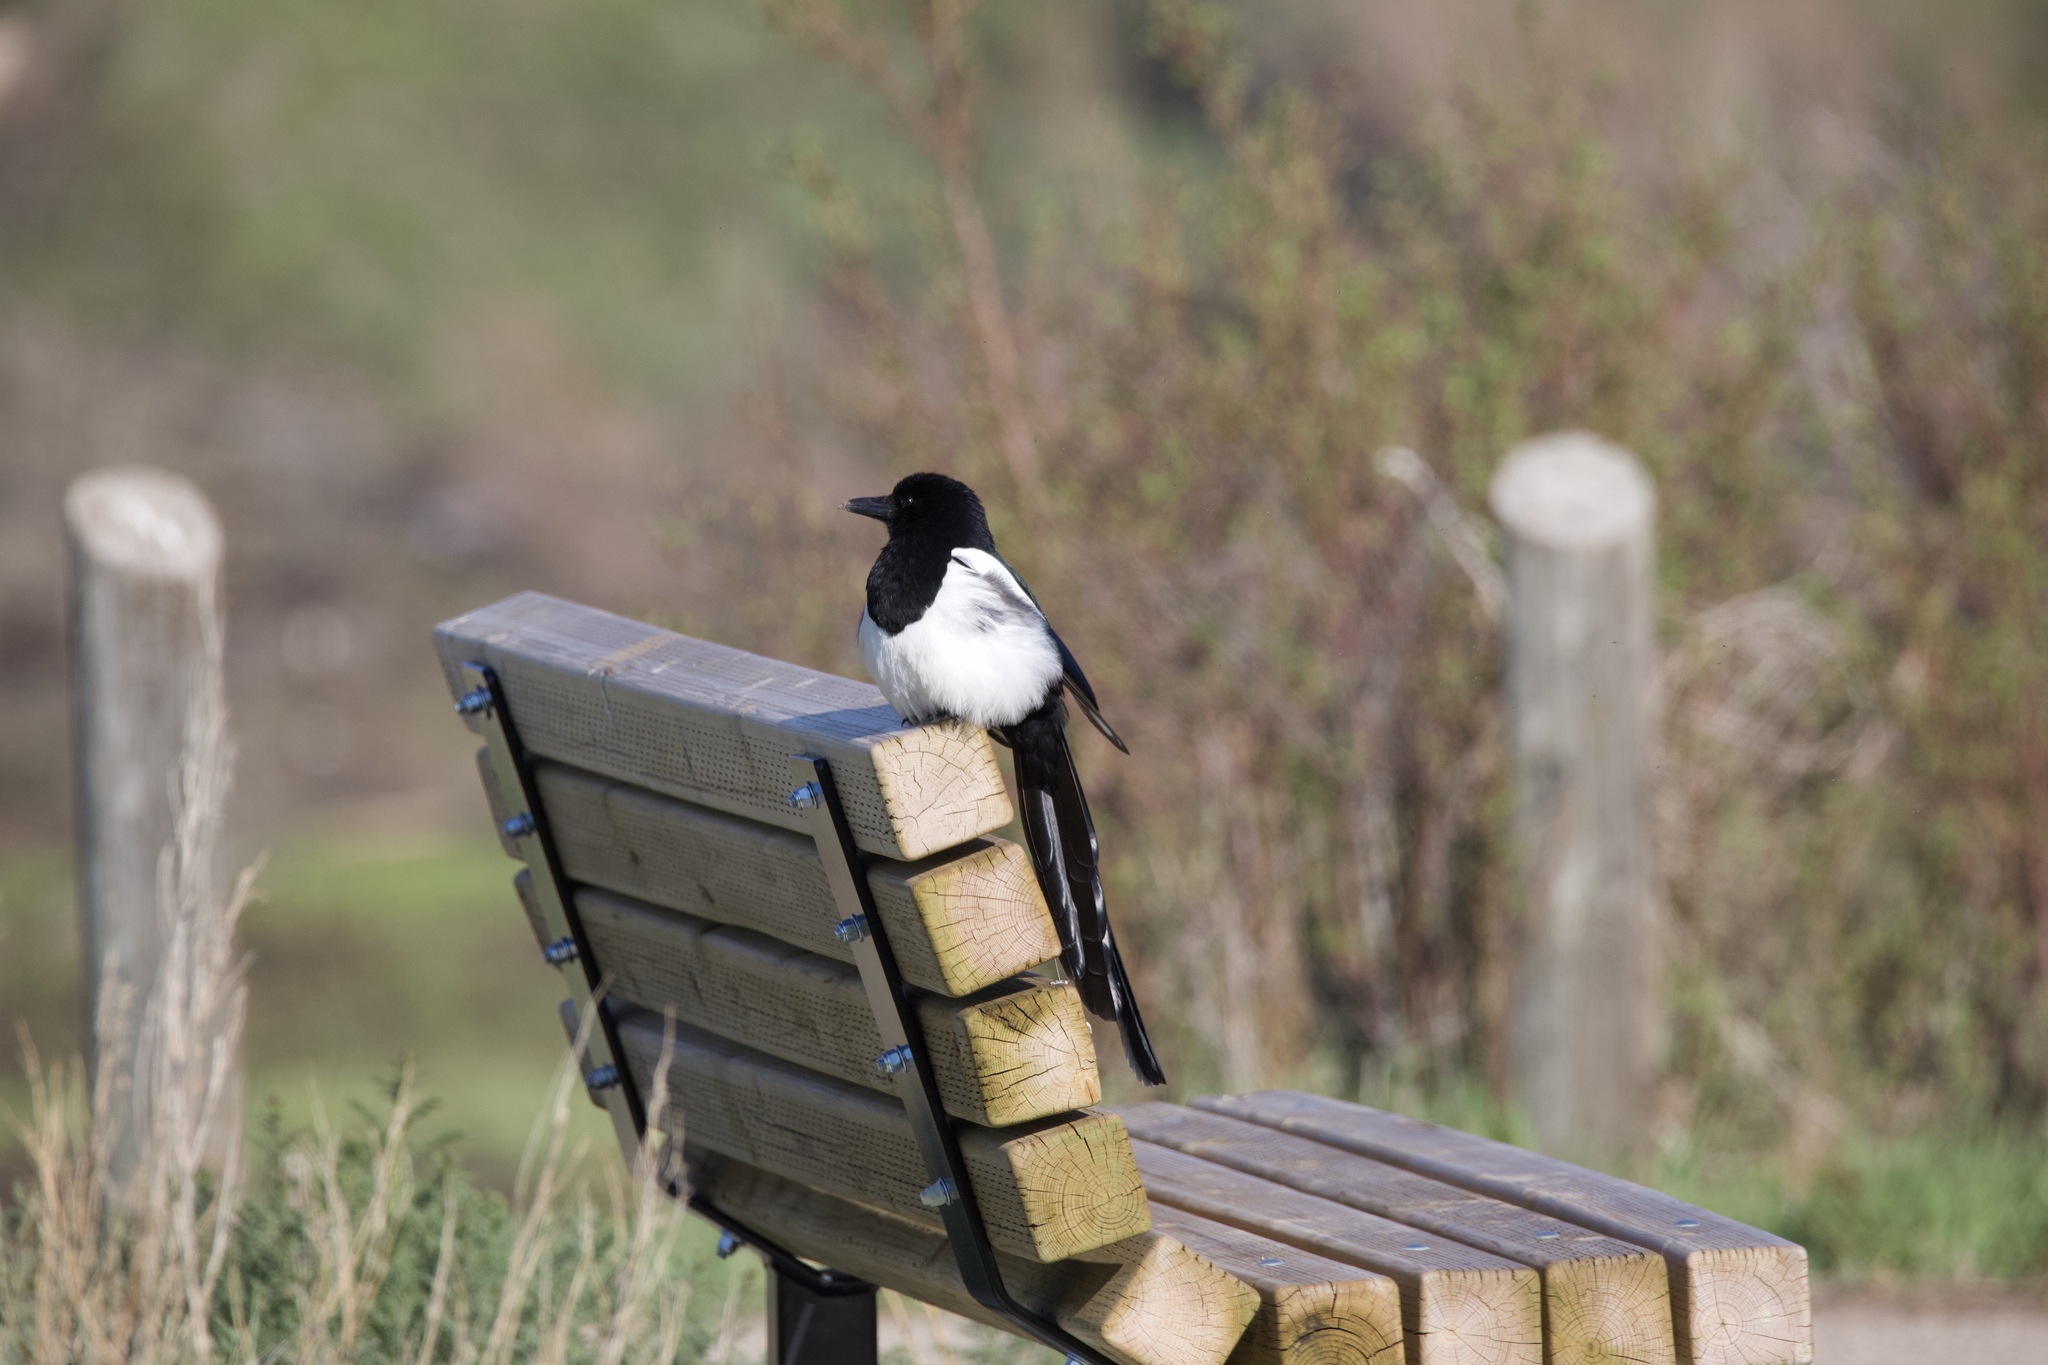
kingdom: Animalia
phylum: Chordata
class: Aves
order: Passeriformes
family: Corvidae
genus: Pica
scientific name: Pica hudsonia
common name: Black-billed magpie
